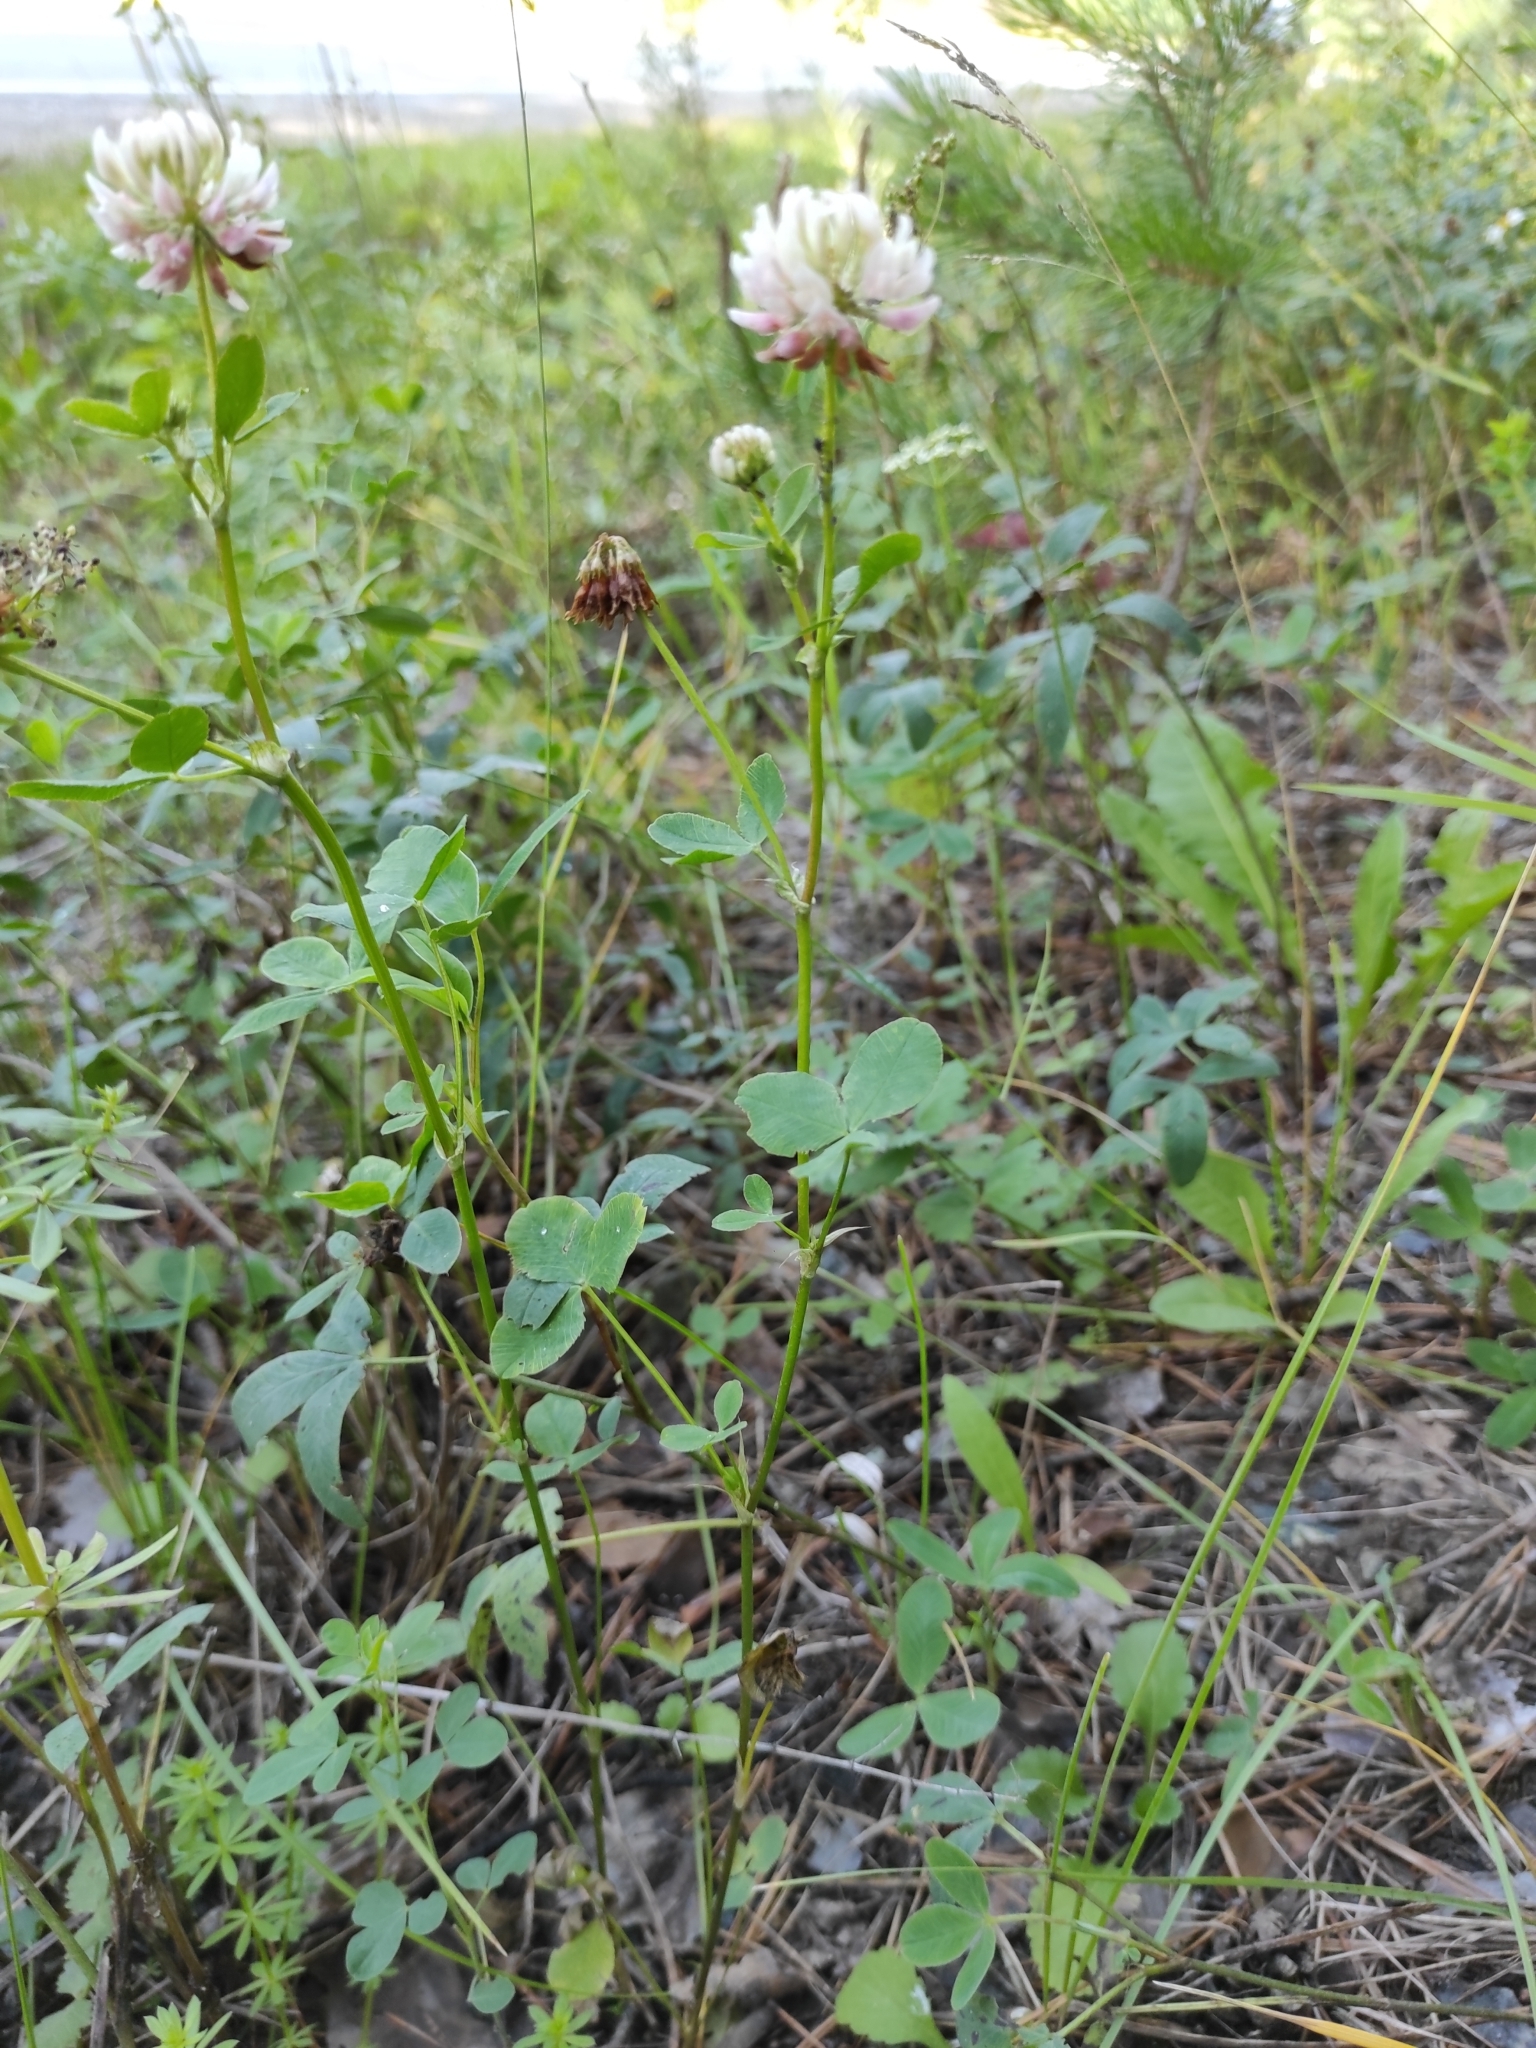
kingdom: Plantae
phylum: Tracheophyta
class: Magnoliopsida
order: Fabales
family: Fabaceae
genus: Trifolium
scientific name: Trifolium hybridum
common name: Alsike clover
